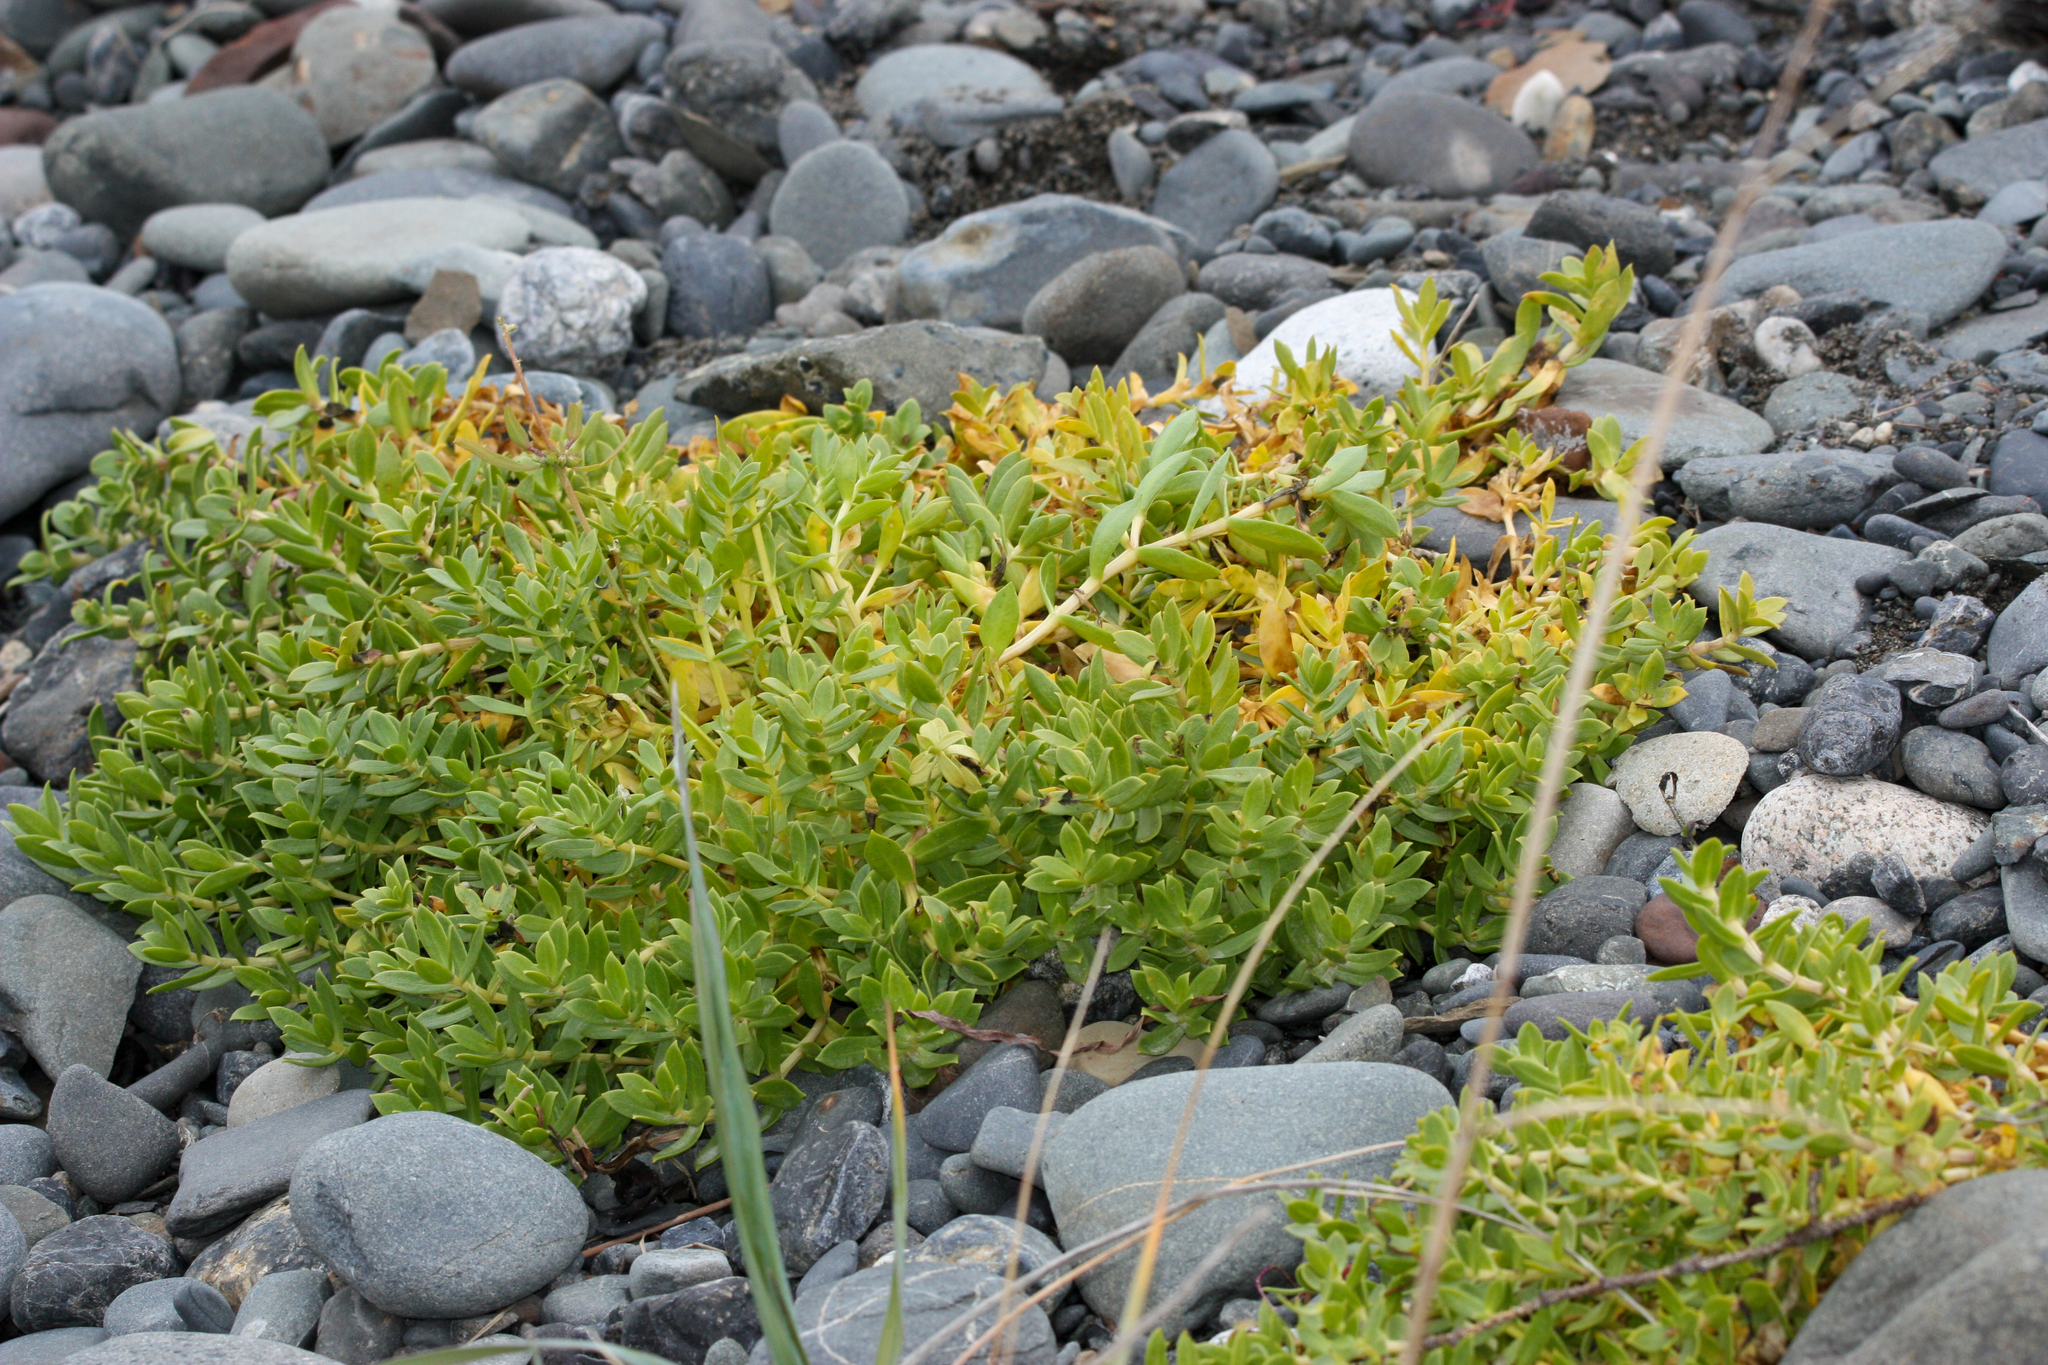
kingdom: Plantae
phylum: Tracheophyta
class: Magnoliopsida
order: Caryophyllales
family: Caryophyllaceae
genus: Honckenya
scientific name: Honckenya peploides
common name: Sea sandwort
